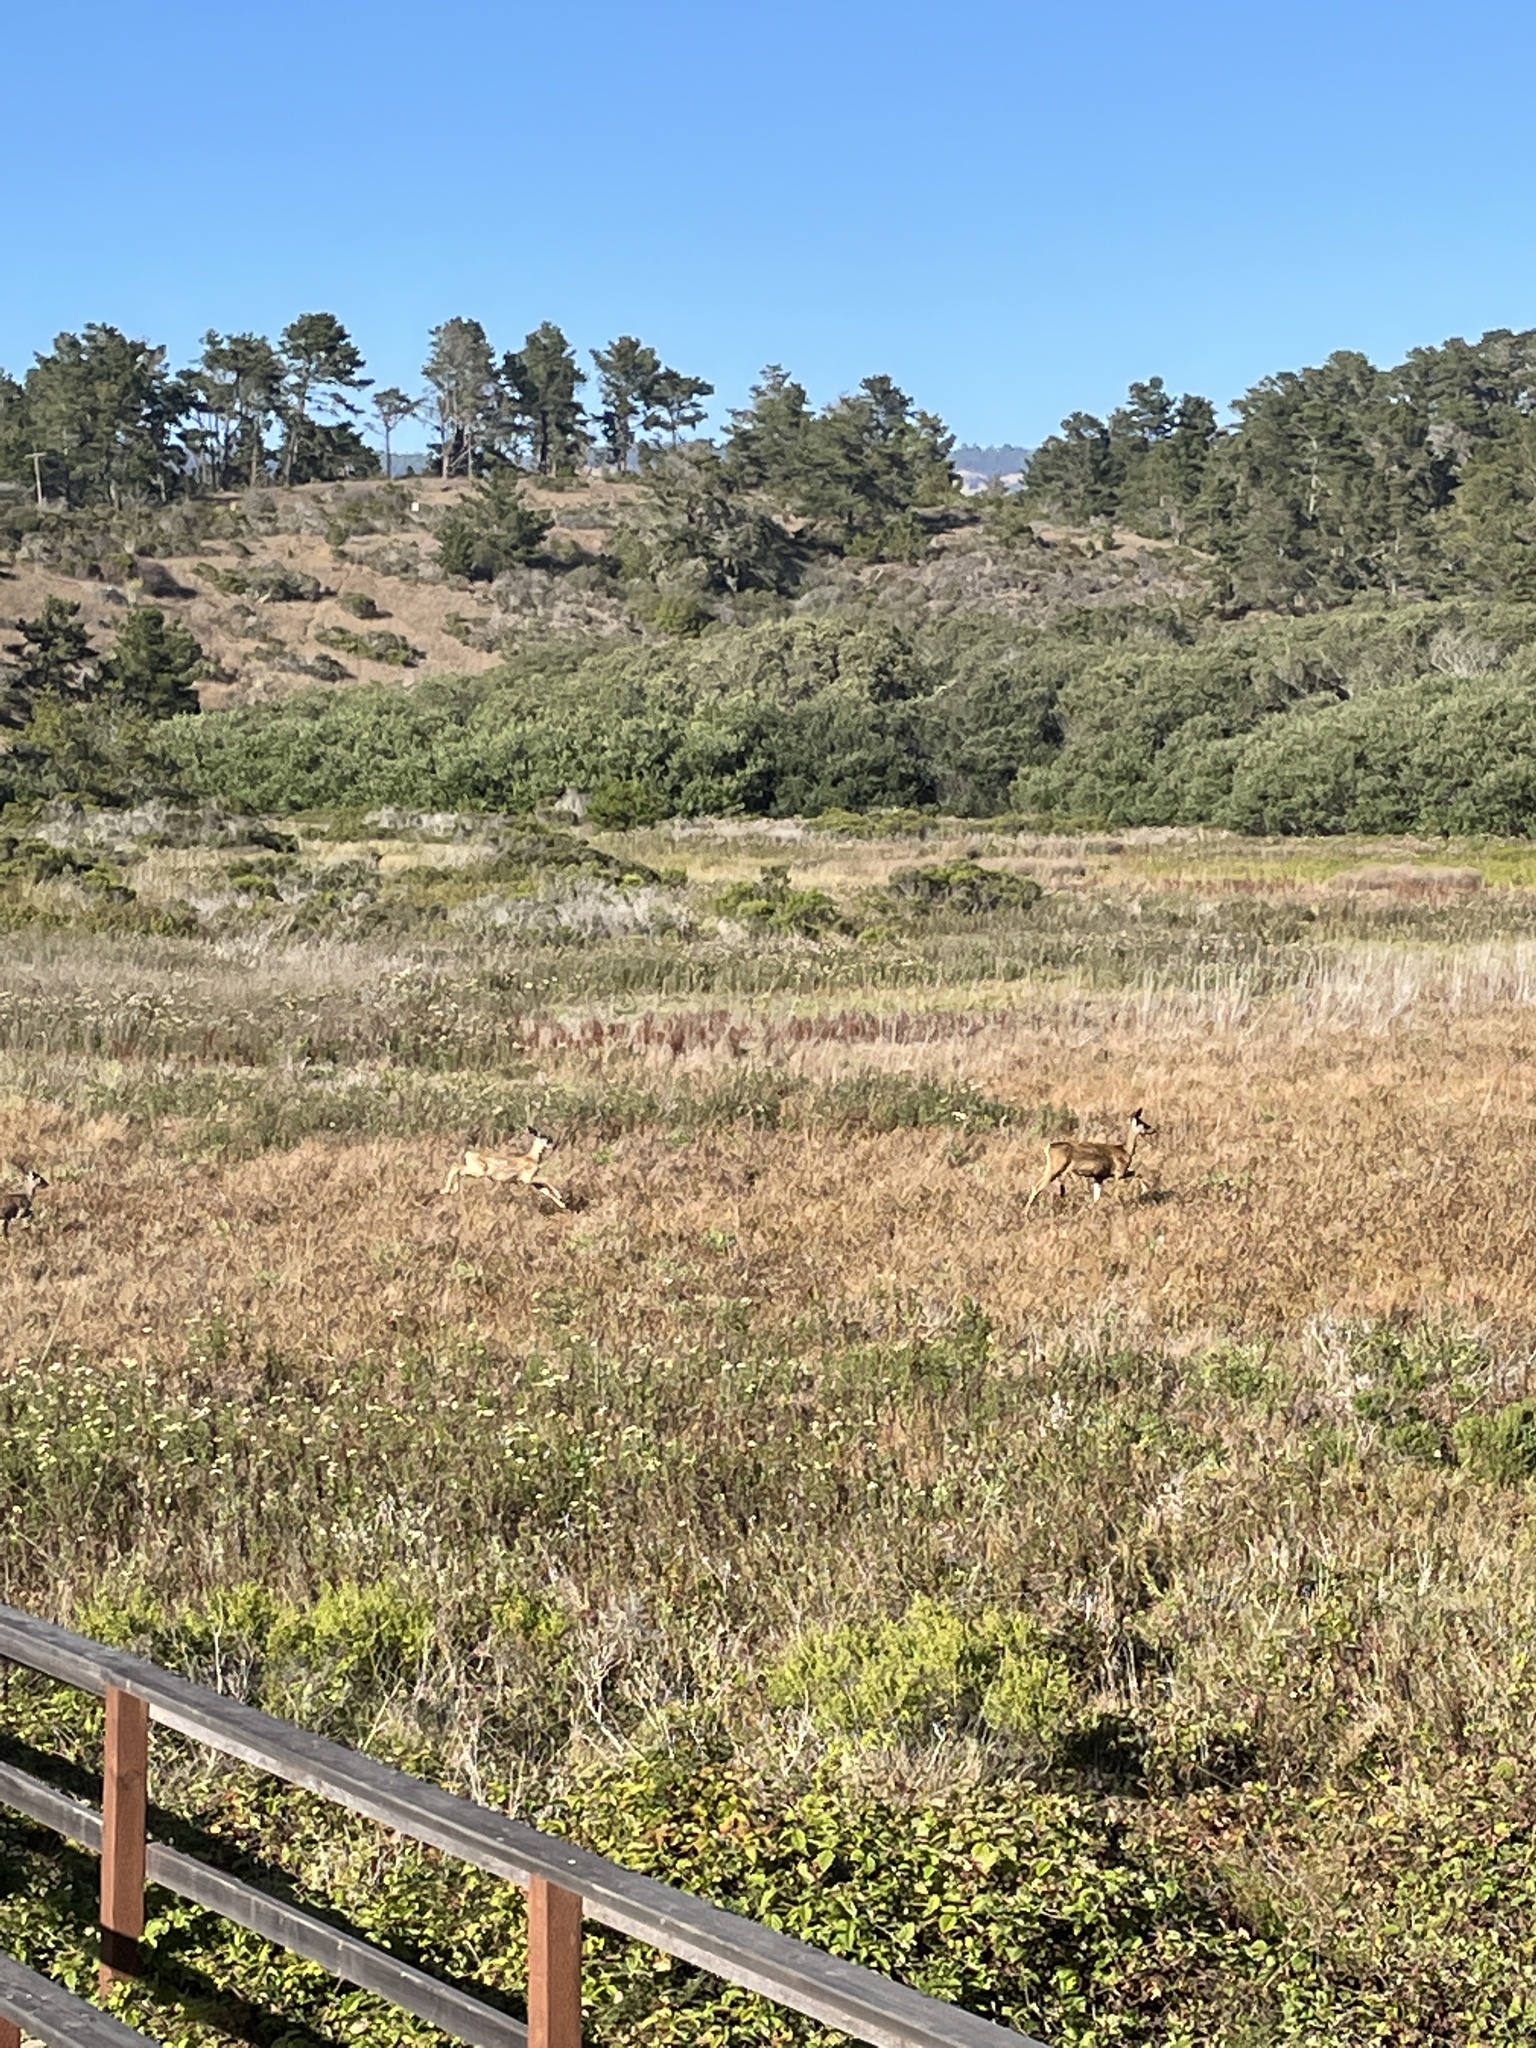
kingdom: Animalia
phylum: Chordata
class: Mammalia
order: Artiodactyla
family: Cervidae
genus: Odocoileus
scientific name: Odocoileus hemionus
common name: Mule deer
